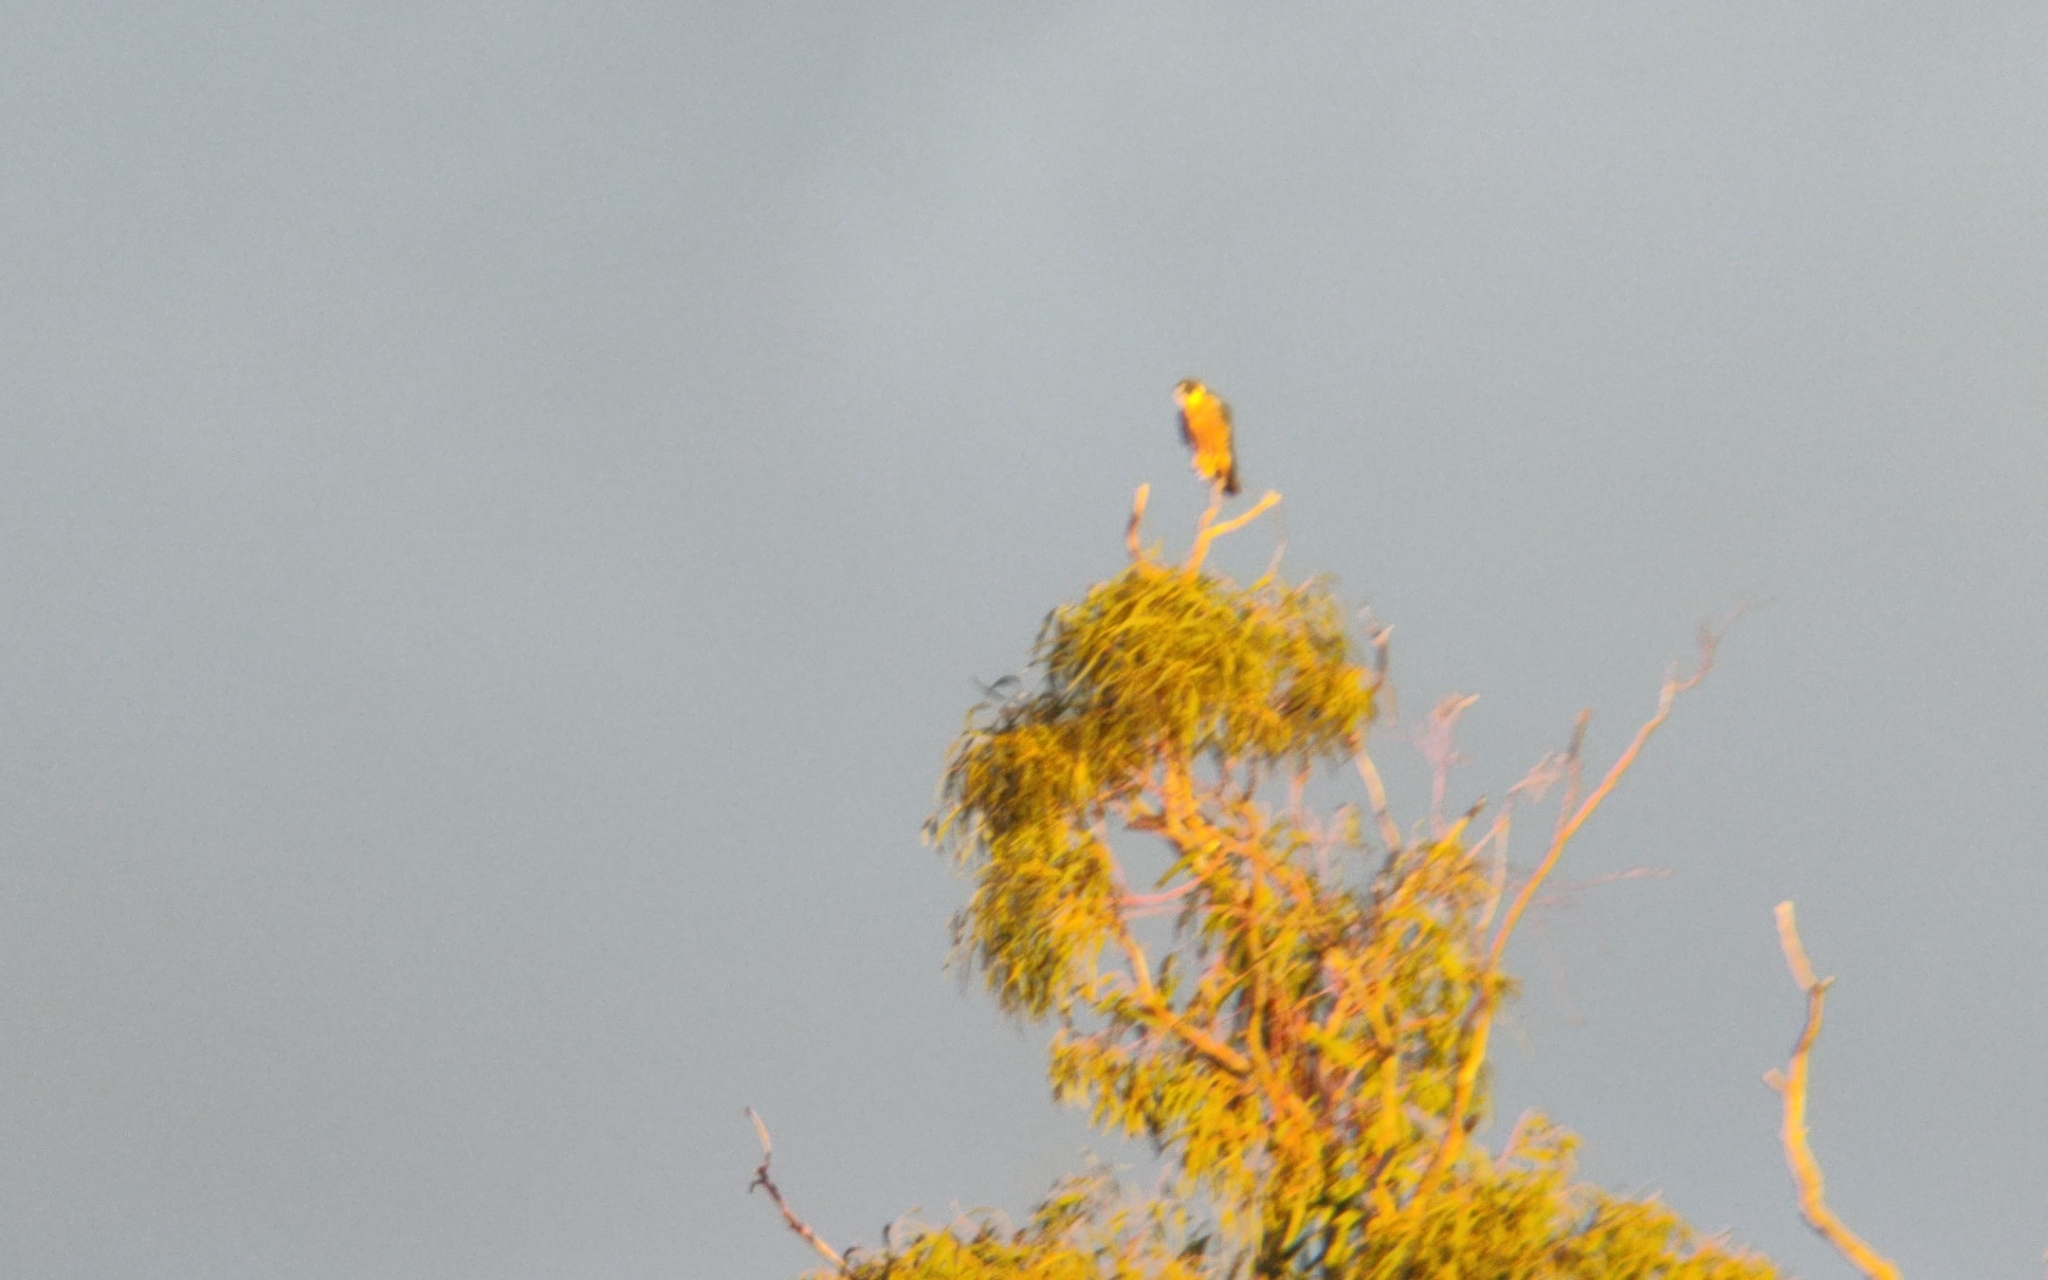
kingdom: Animalia
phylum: Chordata
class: Aves
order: Falconiformes
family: Falconidae
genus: Falco
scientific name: Falco longipennis
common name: Australian hobby
